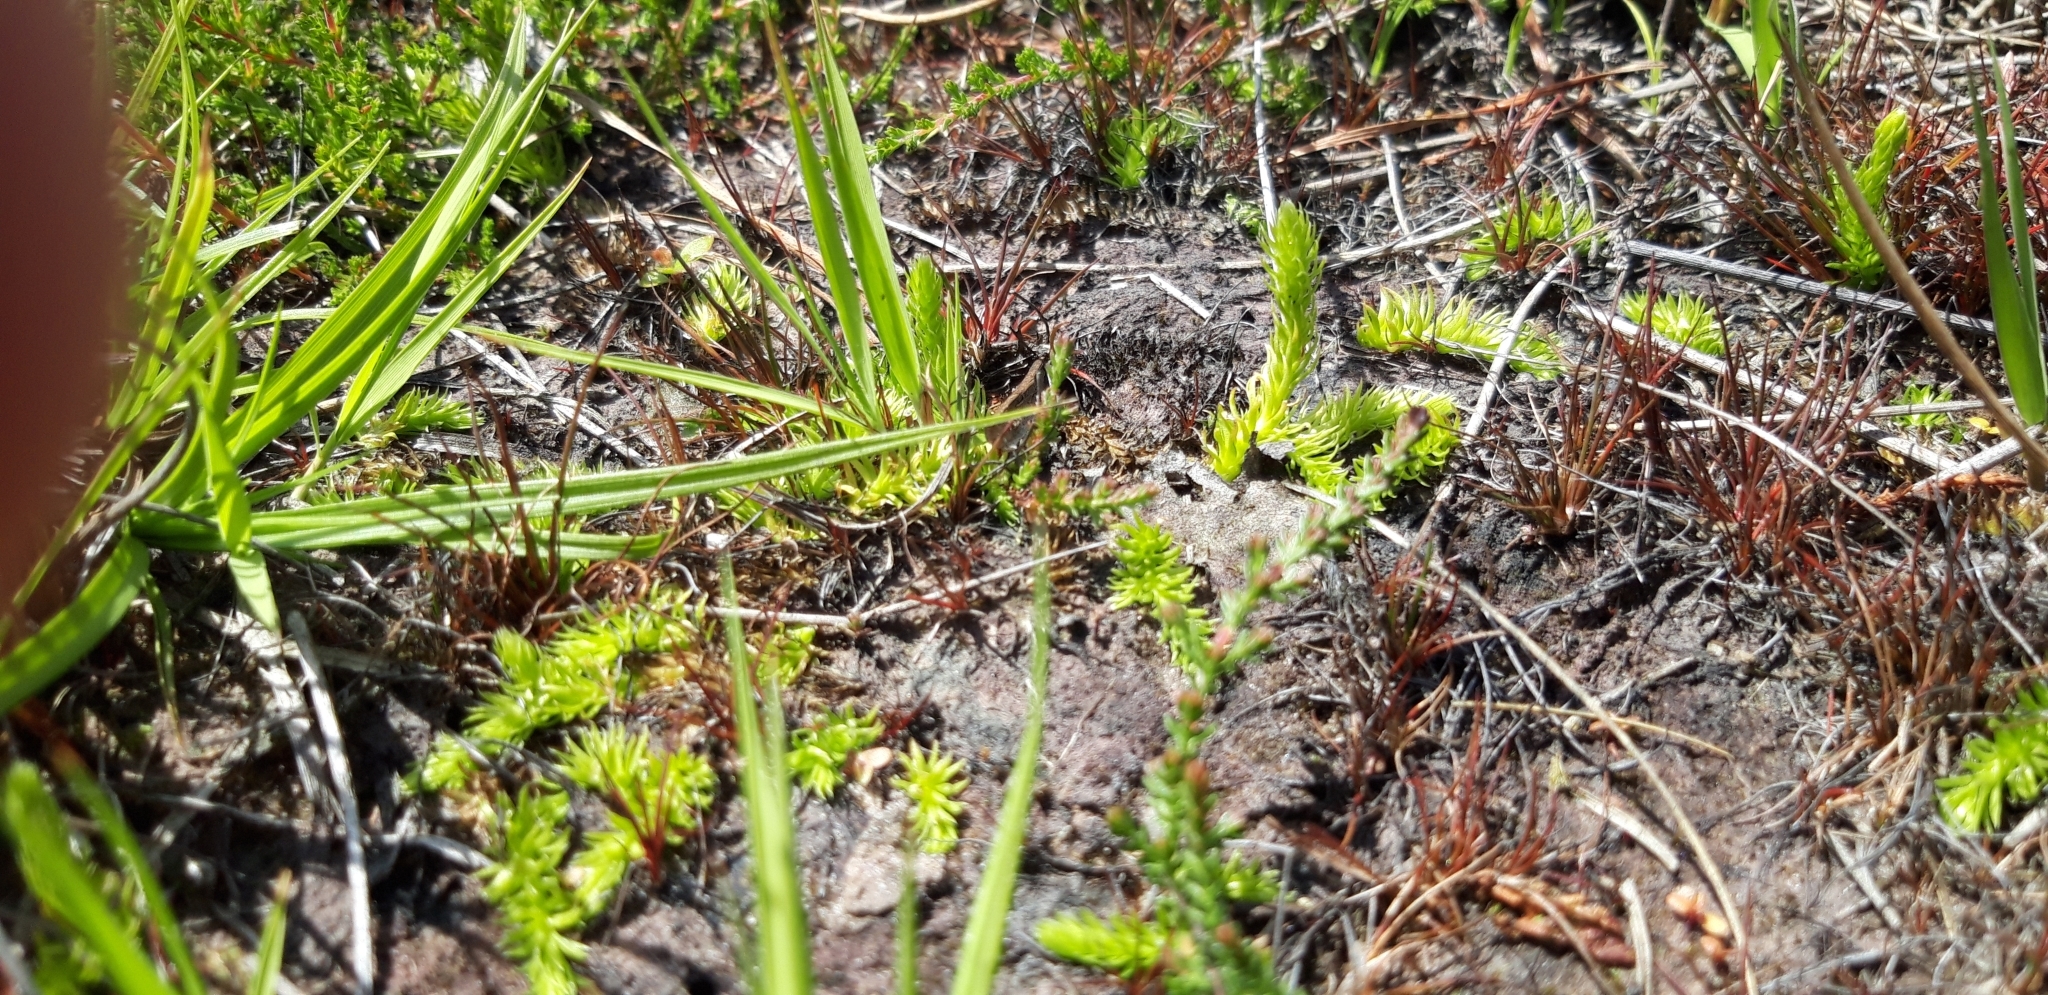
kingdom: Plantae
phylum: Tracheophyta
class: Lycopodiopsida
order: Lycopodiales
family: Lycopodiaceae
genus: Lycopodiella
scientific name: Lycopodiella inundata
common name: Marsh clubmoss
